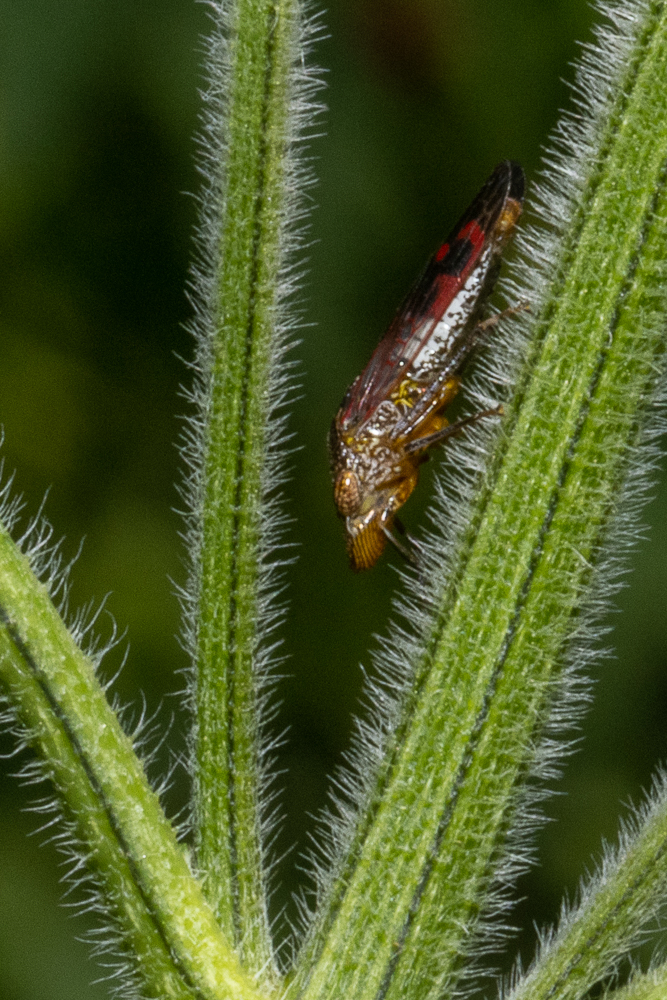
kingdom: Animalia
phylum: Arthropoda
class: Insecta
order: Hemiptera
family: Cicadellidae
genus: Homalodisca
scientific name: Homalodisca vitripennis
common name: Glassy-winged sharpshooter
